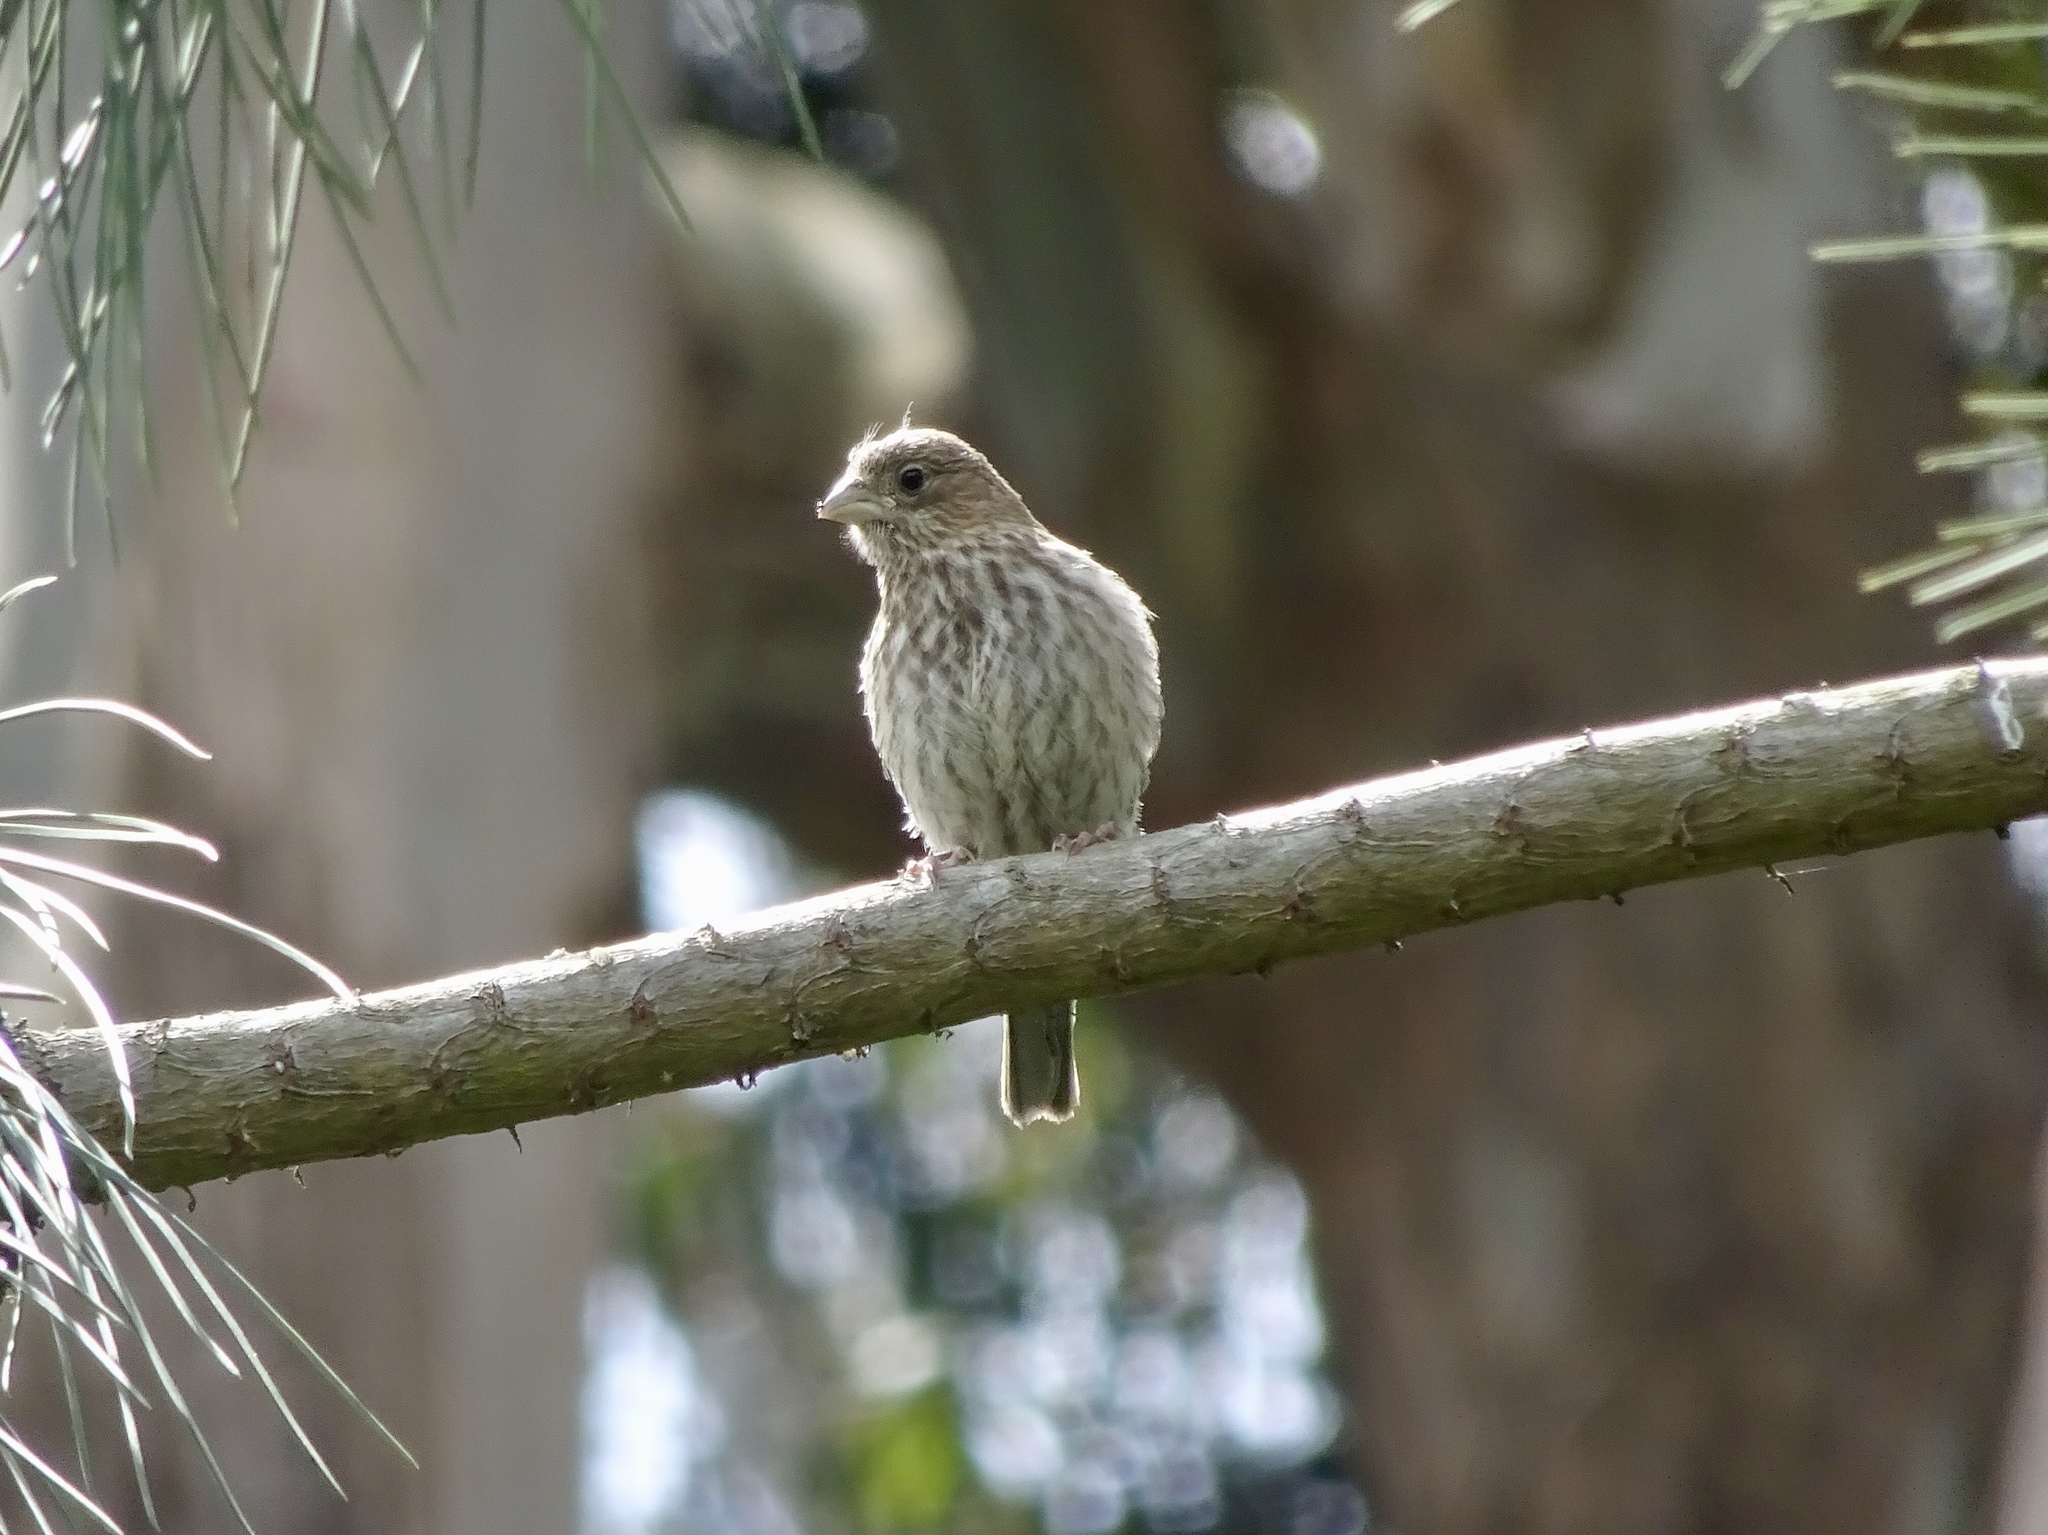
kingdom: Animalia
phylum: Chordata
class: Aves
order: Passeriformes
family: Fringillidae
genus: Haemorhous
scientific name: Haemorhous mexicanus
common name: House finch
